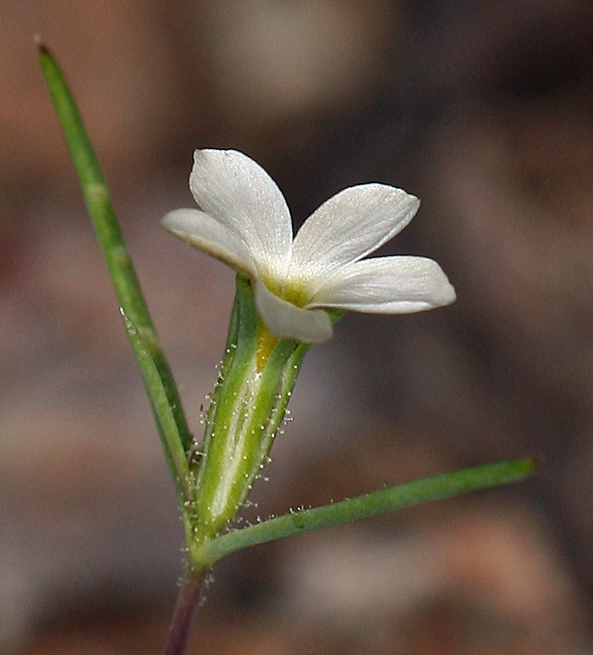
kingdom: Plantae
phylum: Tracheophyta
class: Magnoliopsida
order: Ericales
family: Polemoniaceae
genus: Linanthus
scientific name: Linanthus jonesii
